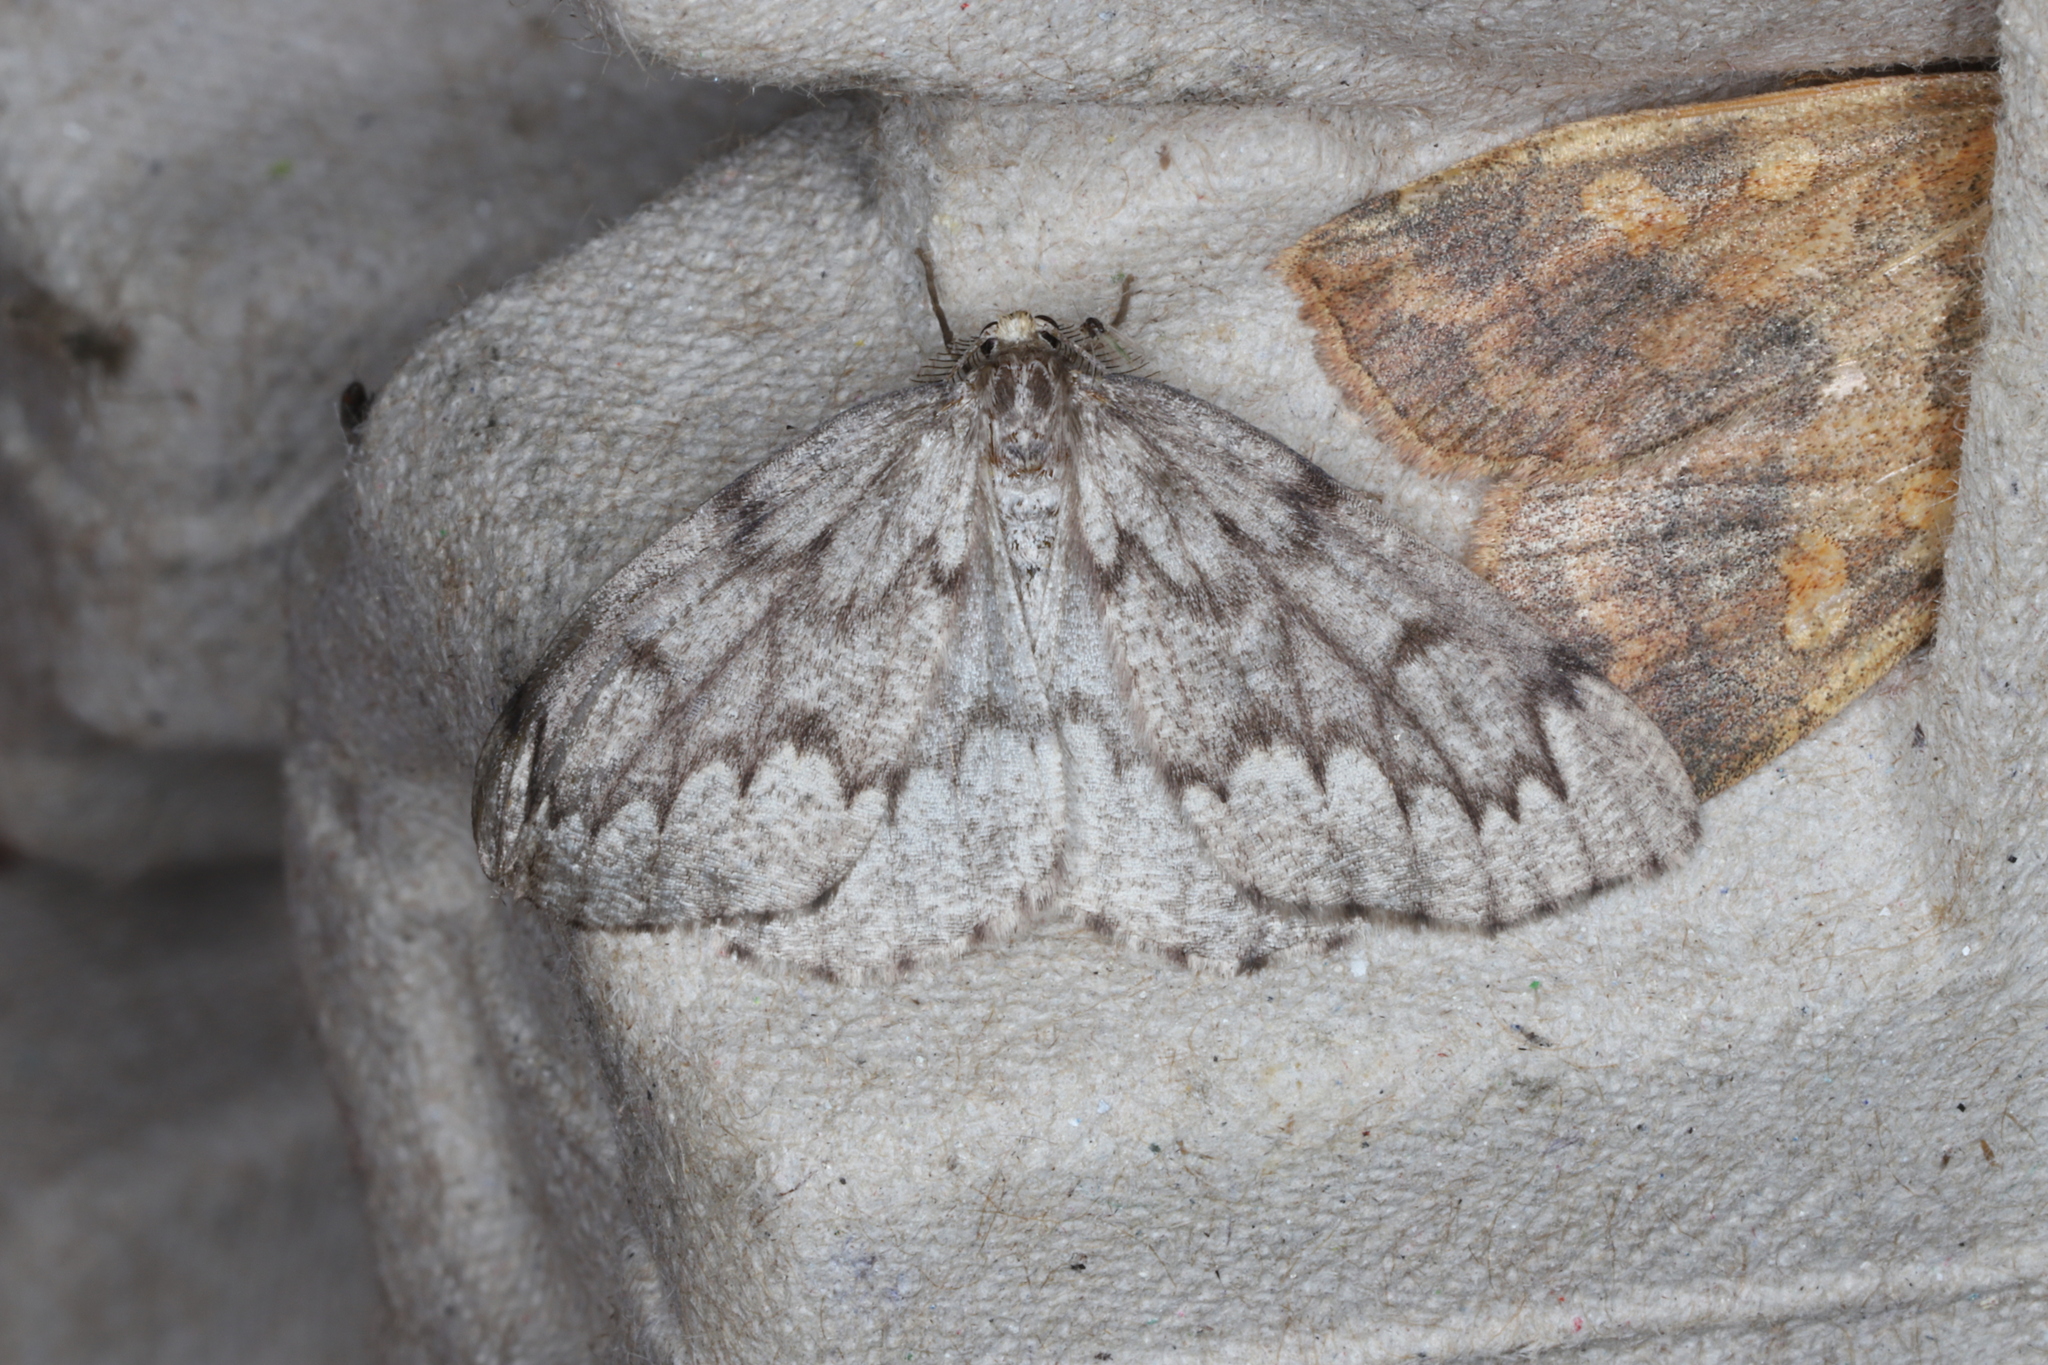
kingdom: Animalia
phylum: Arthropoda
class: Insecta
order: Lepidoptera
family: Geometridae
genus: Nepytia
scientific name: Nepytia canosaria
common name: False hemlock looper
